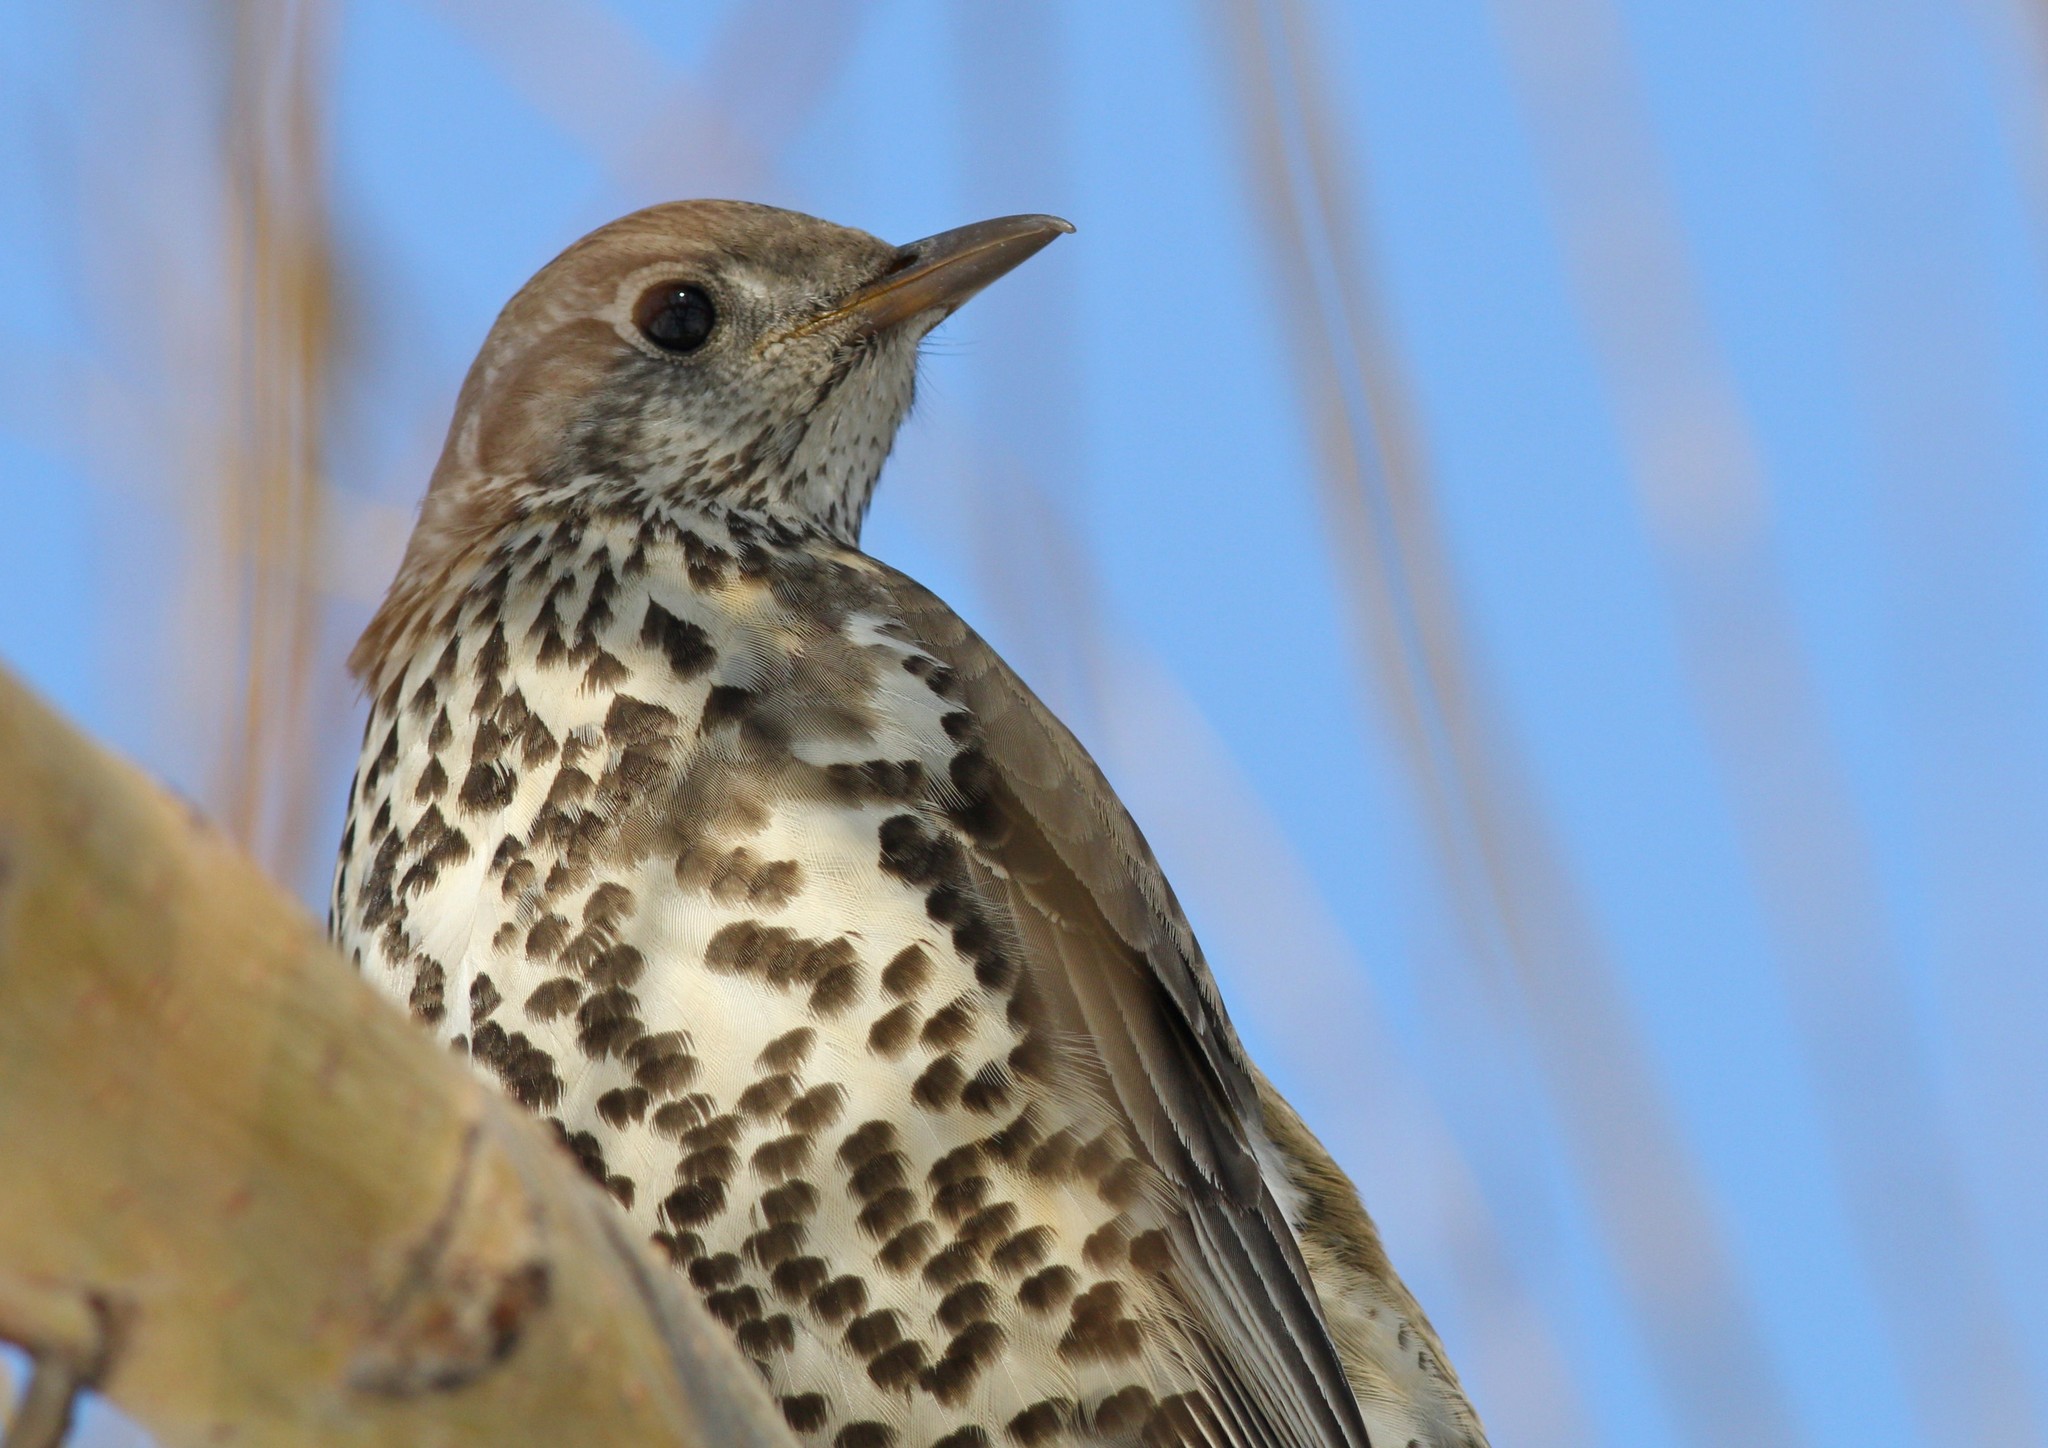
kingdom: Animalia
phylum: Chordata
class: Aves
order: Passeriformes
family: Turdidae
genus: Turdus
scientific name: Turdus viscivorus
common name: Mistle thrush
